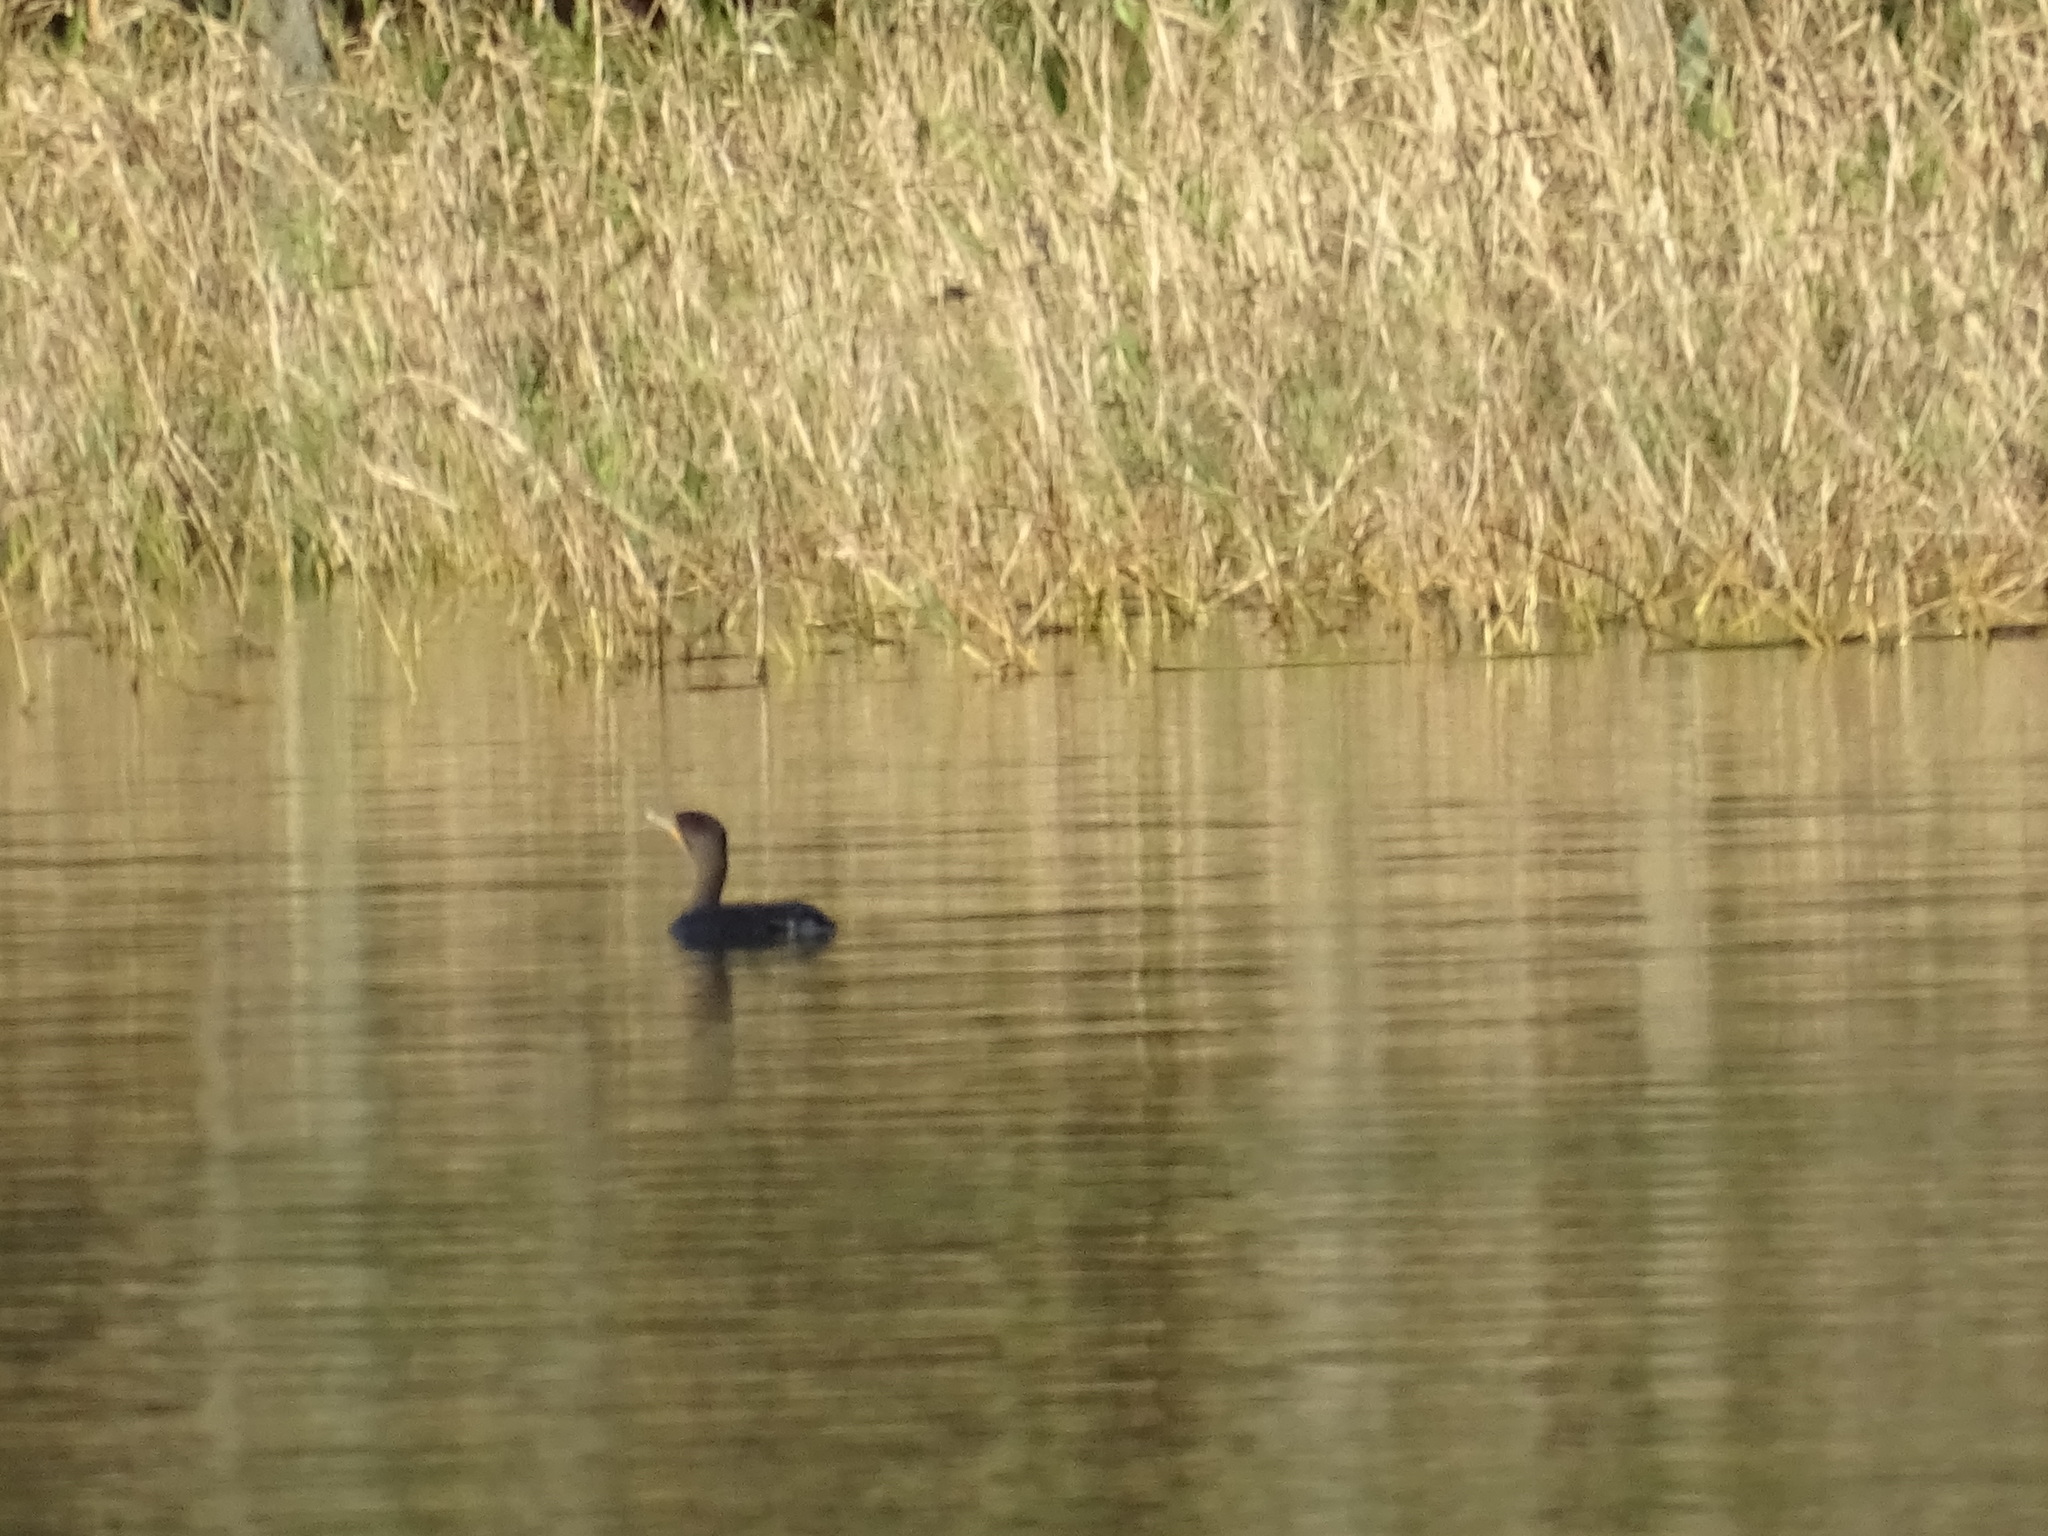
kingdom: Animalia
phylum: Chordata
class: Aves
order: Suliformes
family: Phalacrocoracidae
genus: Phalacrocorax
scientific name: Phalacrocorax auritus
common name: Double-crested cormorant
